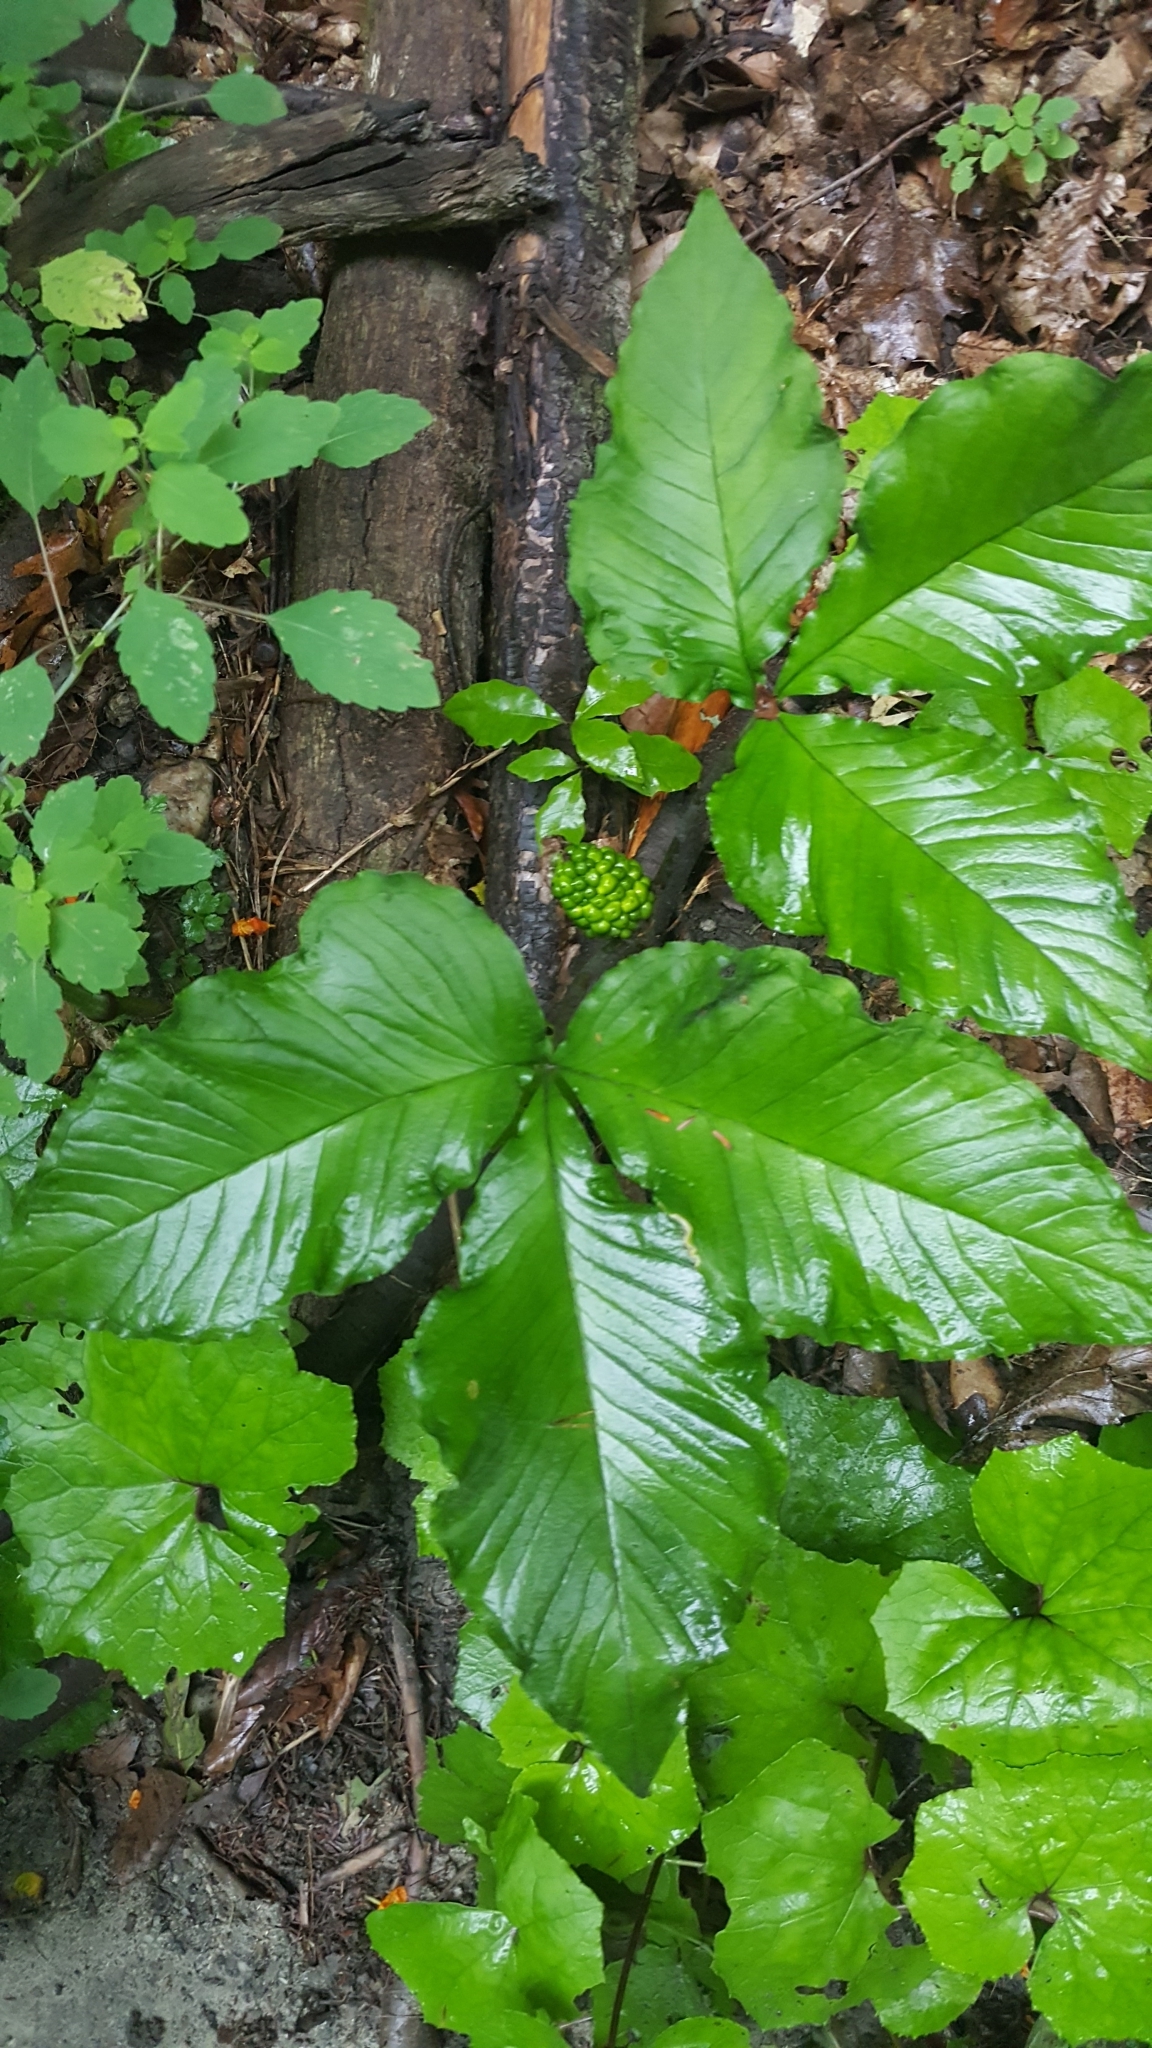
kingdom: Plantae
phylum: Tracheophyta
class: Liliopsida
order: Alismatales
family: Araceae
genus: Arisaema
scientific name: Arisaema triphyllum
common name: Jack-in-the-pulpit
